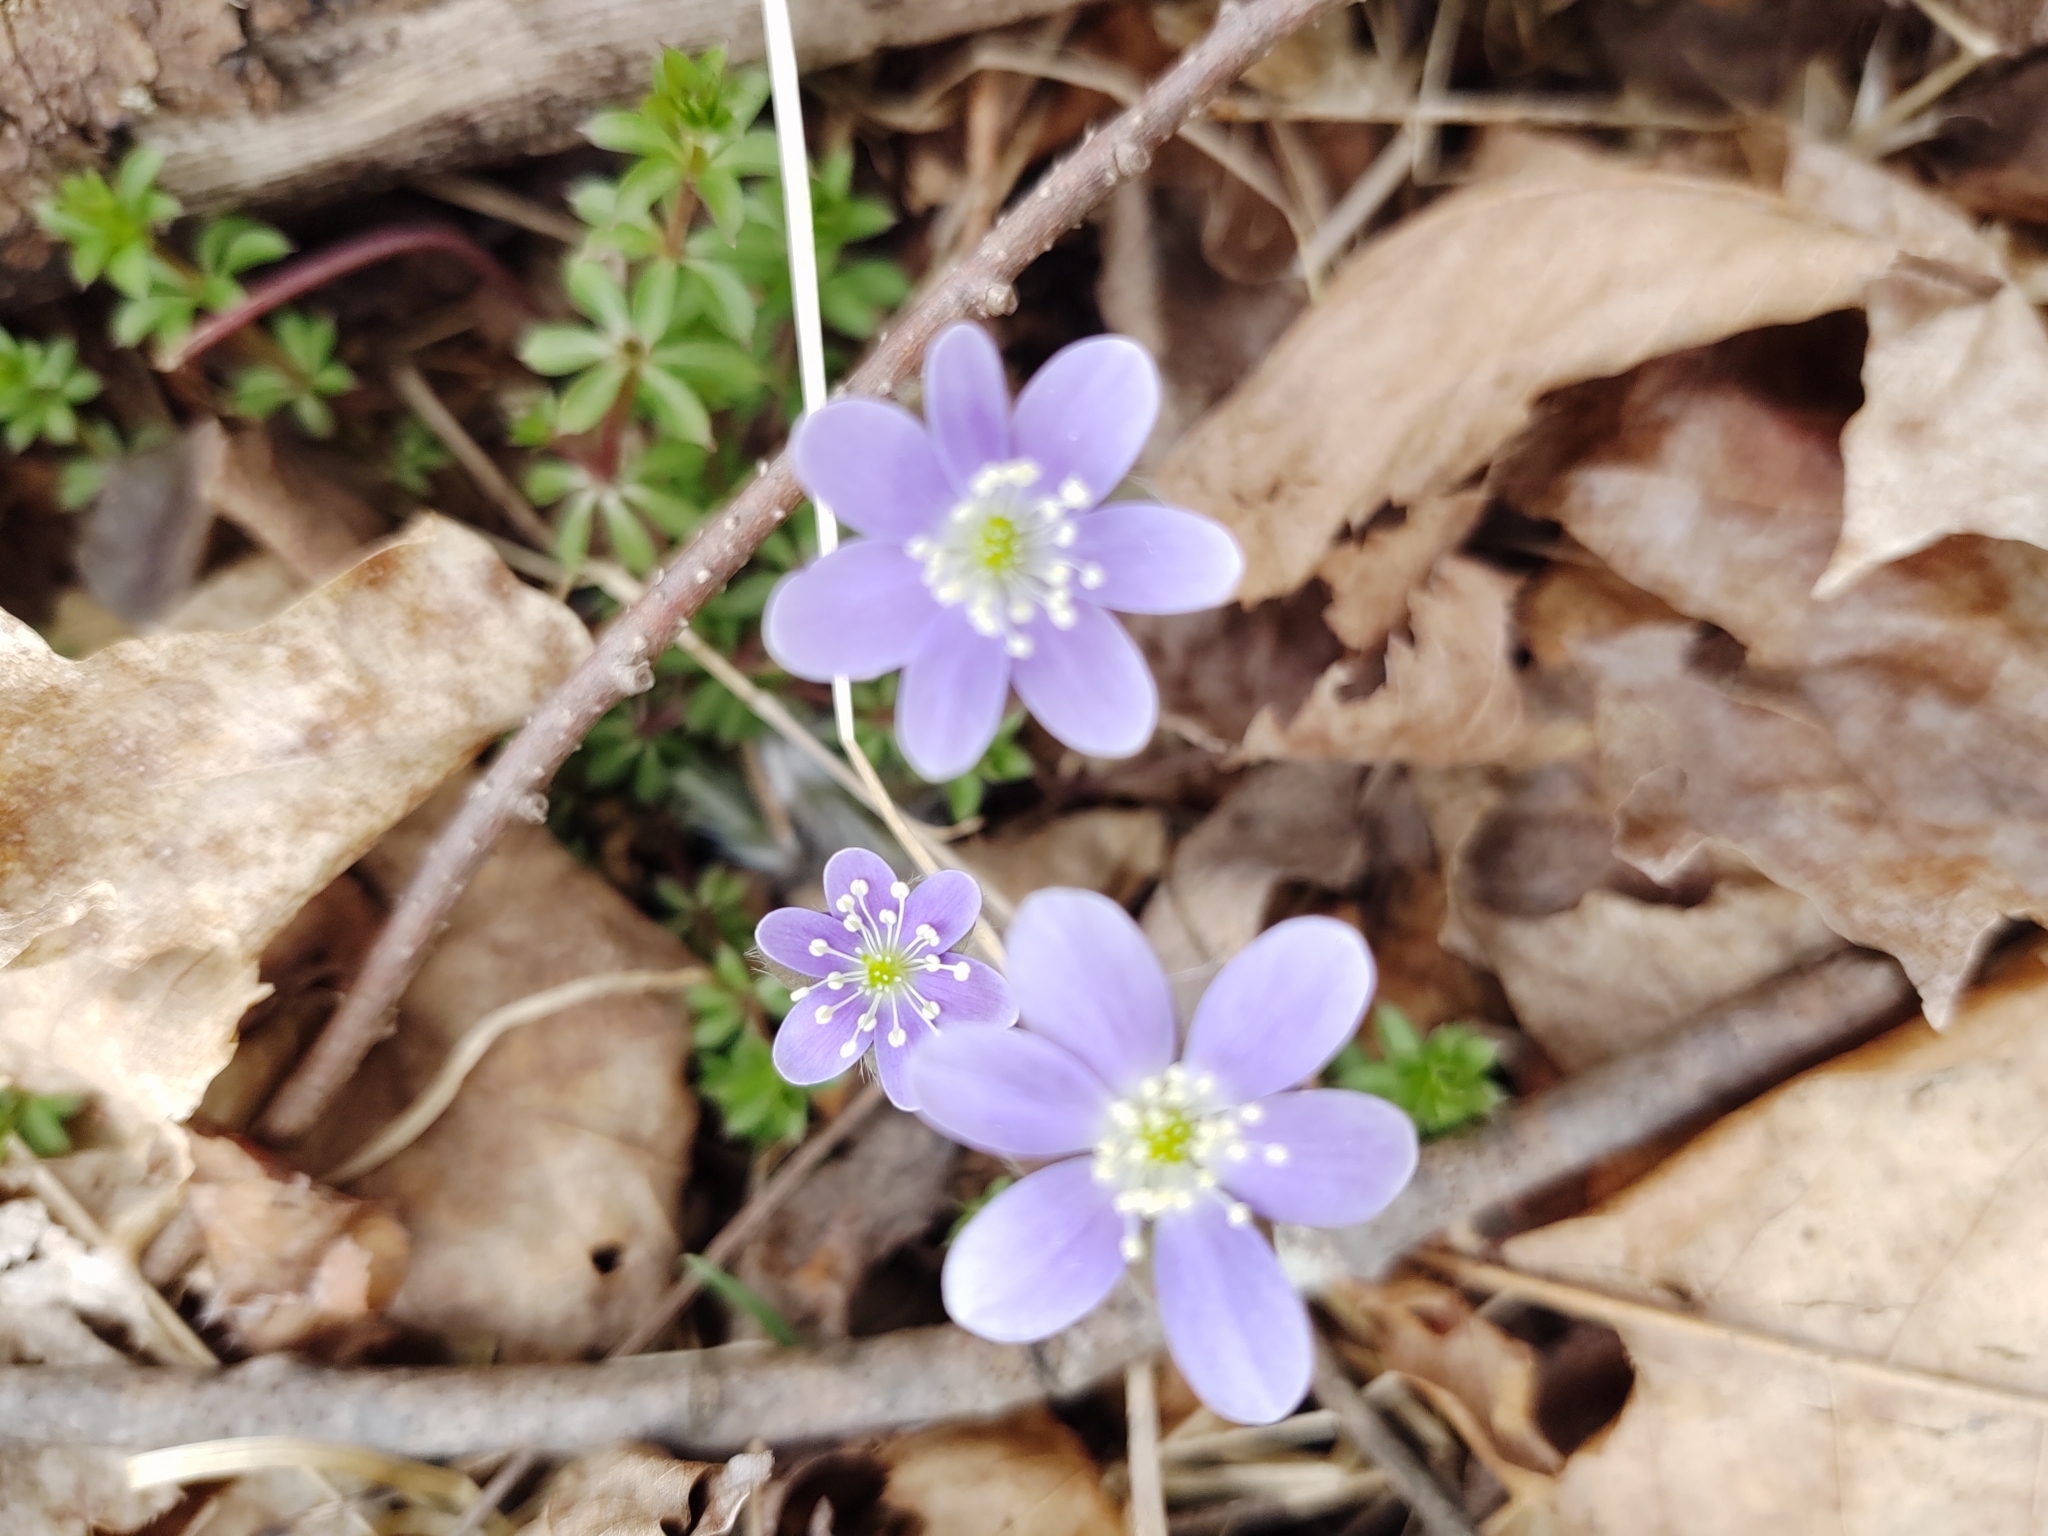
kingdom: Plantae
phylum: Tracheophyta
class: Magnoliopsida
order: Ranunculales
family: Ranunculaceae
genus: Hepatica
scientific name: Hepatica americana
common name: American hepatica
